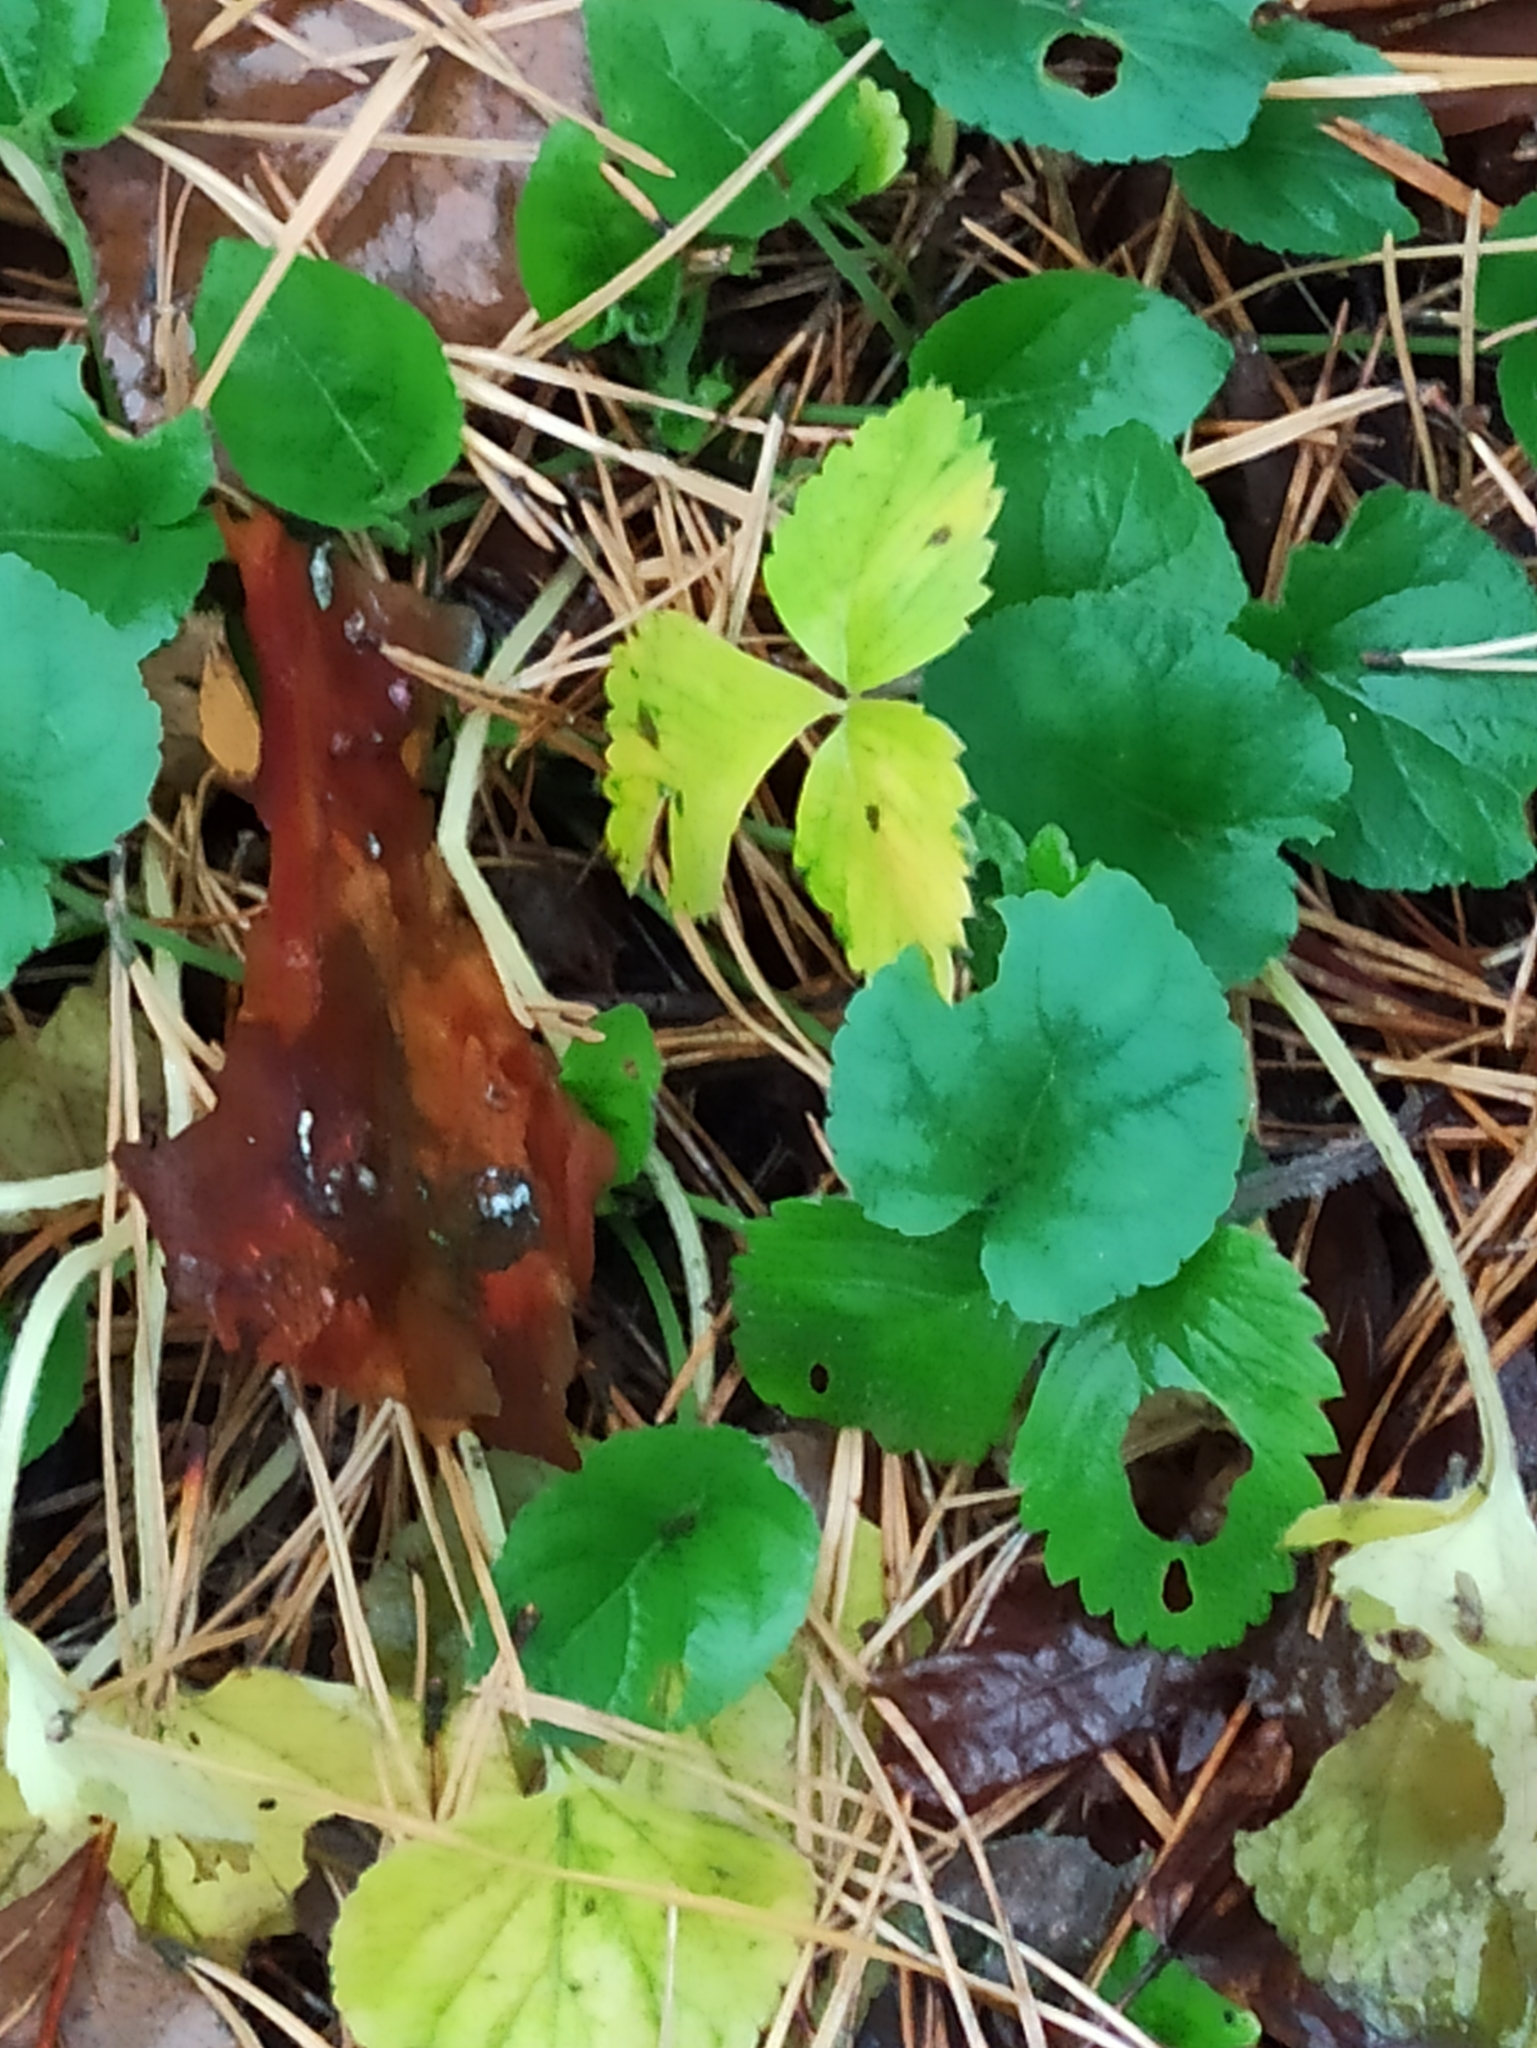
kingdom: Plantae
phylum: Tracheophyta
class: Magnoliopsida
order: Malpighiales
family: Violaceae
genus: Viola
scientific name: Viola collina
